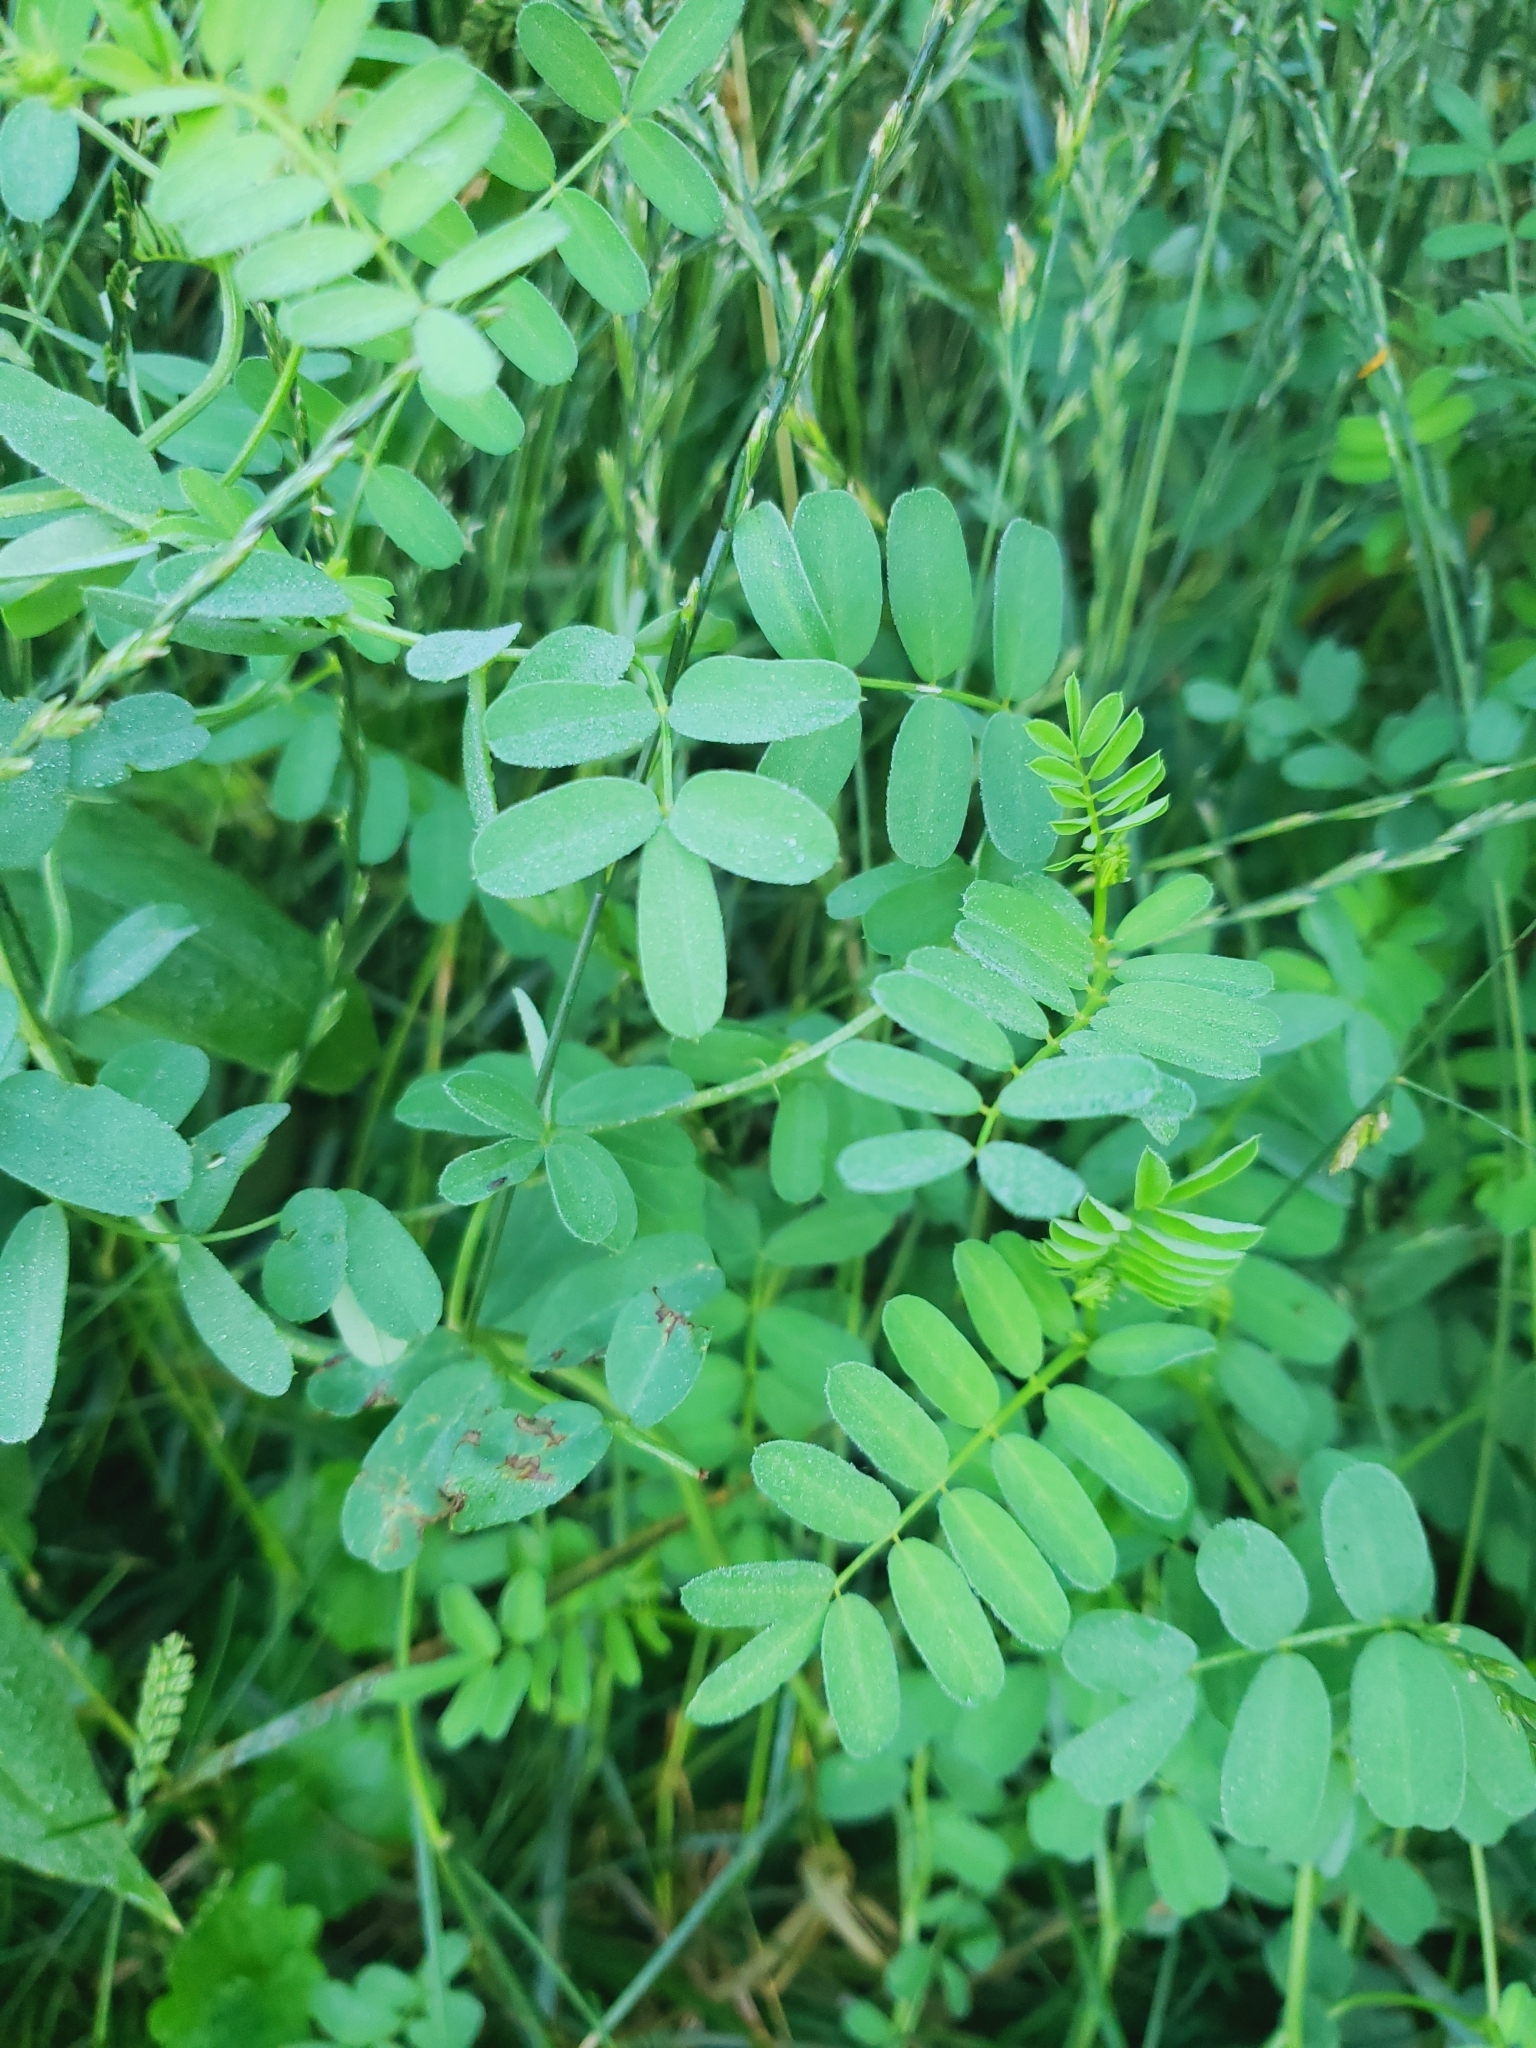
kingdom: Plantae
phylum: Tracheophyta
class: Magnoliopsida
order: Fabales
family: Fabaceae
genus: Coronilla
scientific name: Coronilla varia
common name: Crownvetch
